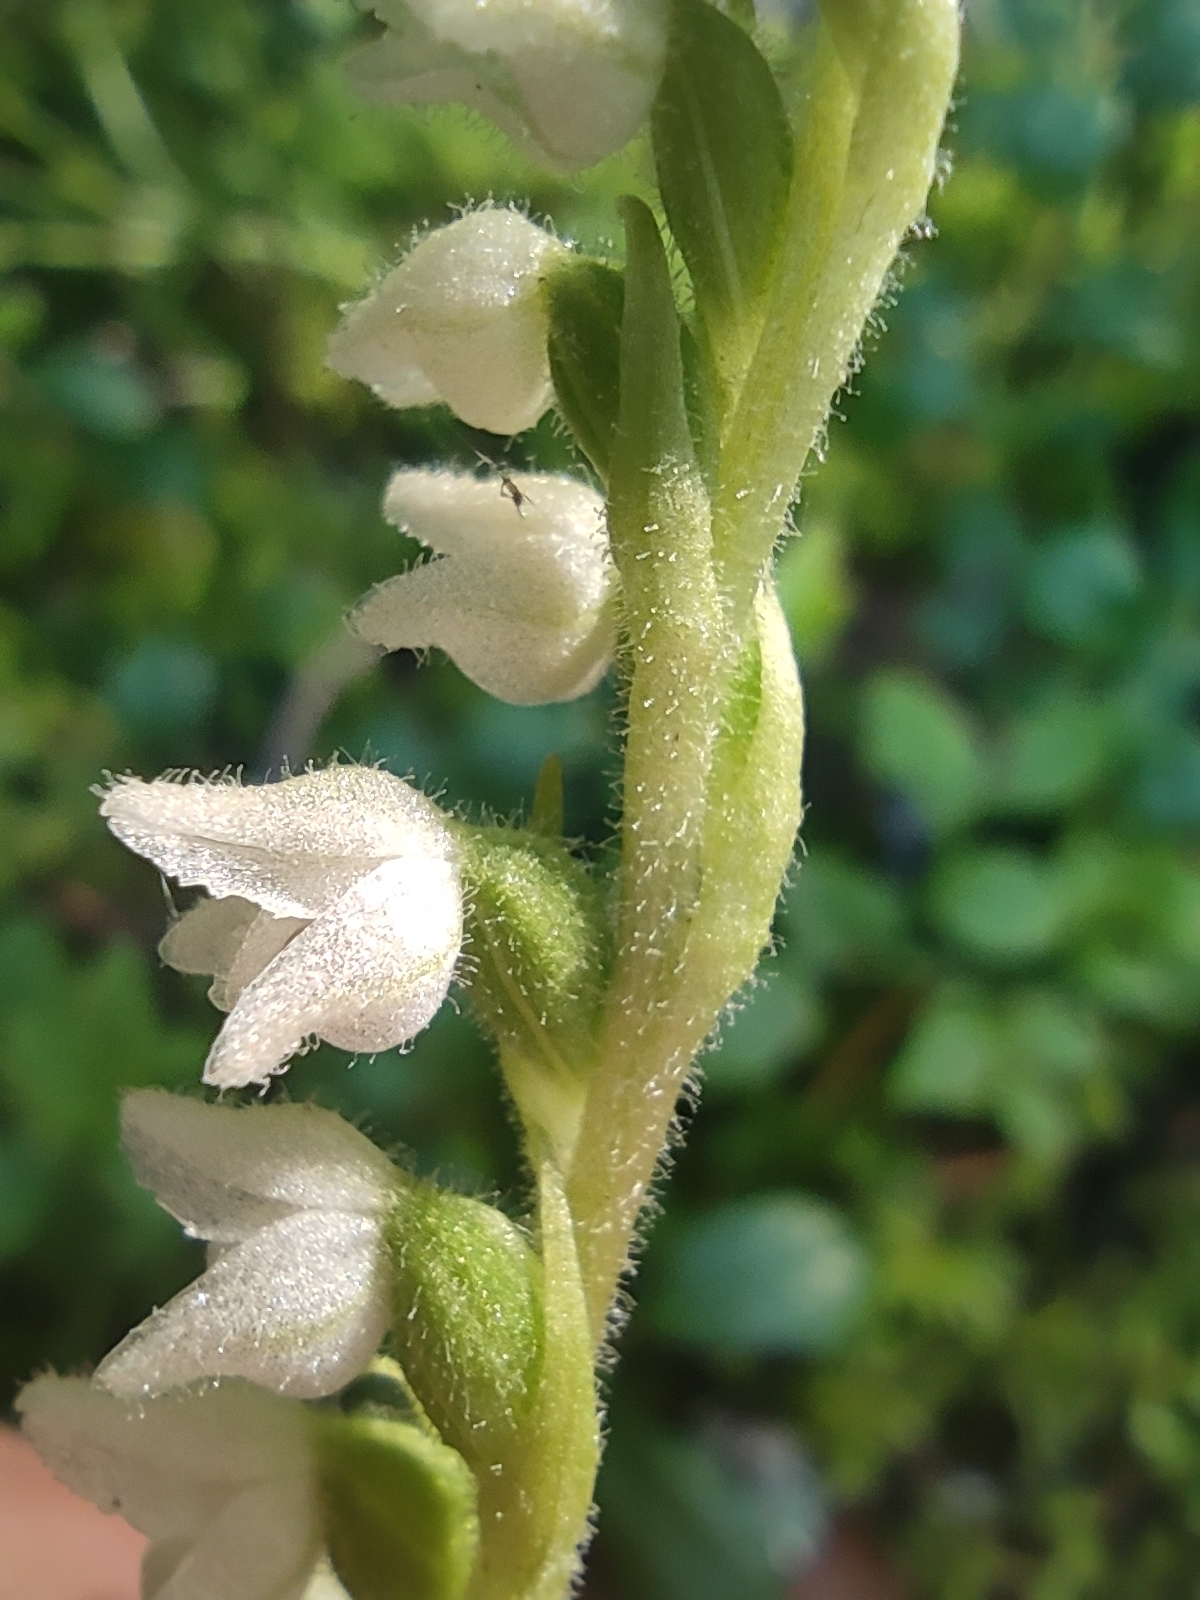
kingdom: Plantae
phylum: Tracheophyta
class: Liliopsida
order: Asparagales
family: Orchidaceae
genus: Goodyera
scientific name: Goodyera repens
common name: Creeping lady's-tresses
